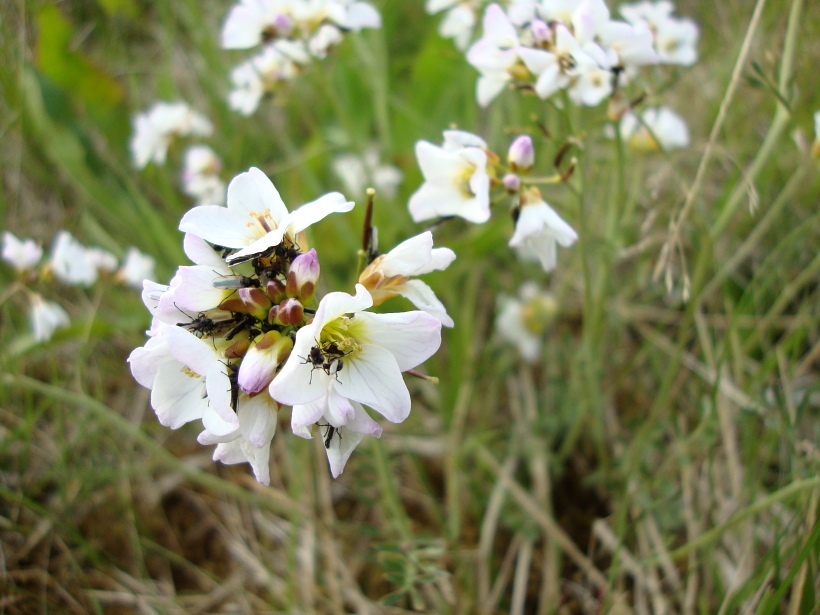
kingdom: Plantae
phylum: Tracheophyta
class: Magnoliopsida
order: Brassicales
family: Brassicaceae
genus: Cardamine
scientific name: Cardamine pratensis
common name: Cuckoo flower
